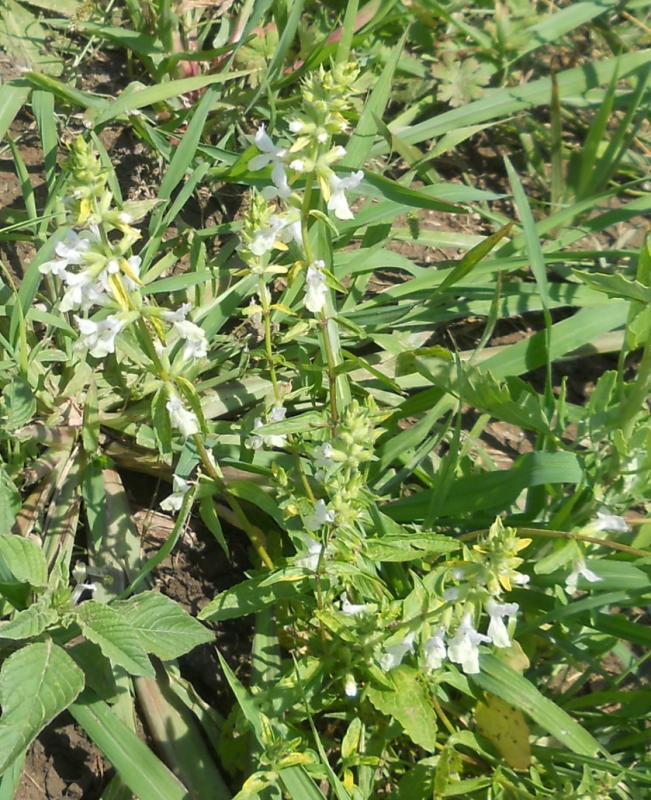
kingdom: Plantae
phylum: Tracheophyta
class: Magnoliopsida
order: Lamiales
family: Lamiaceae
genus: Stachys
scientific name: Stachys recta
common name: Perennial yellow-woundwort
